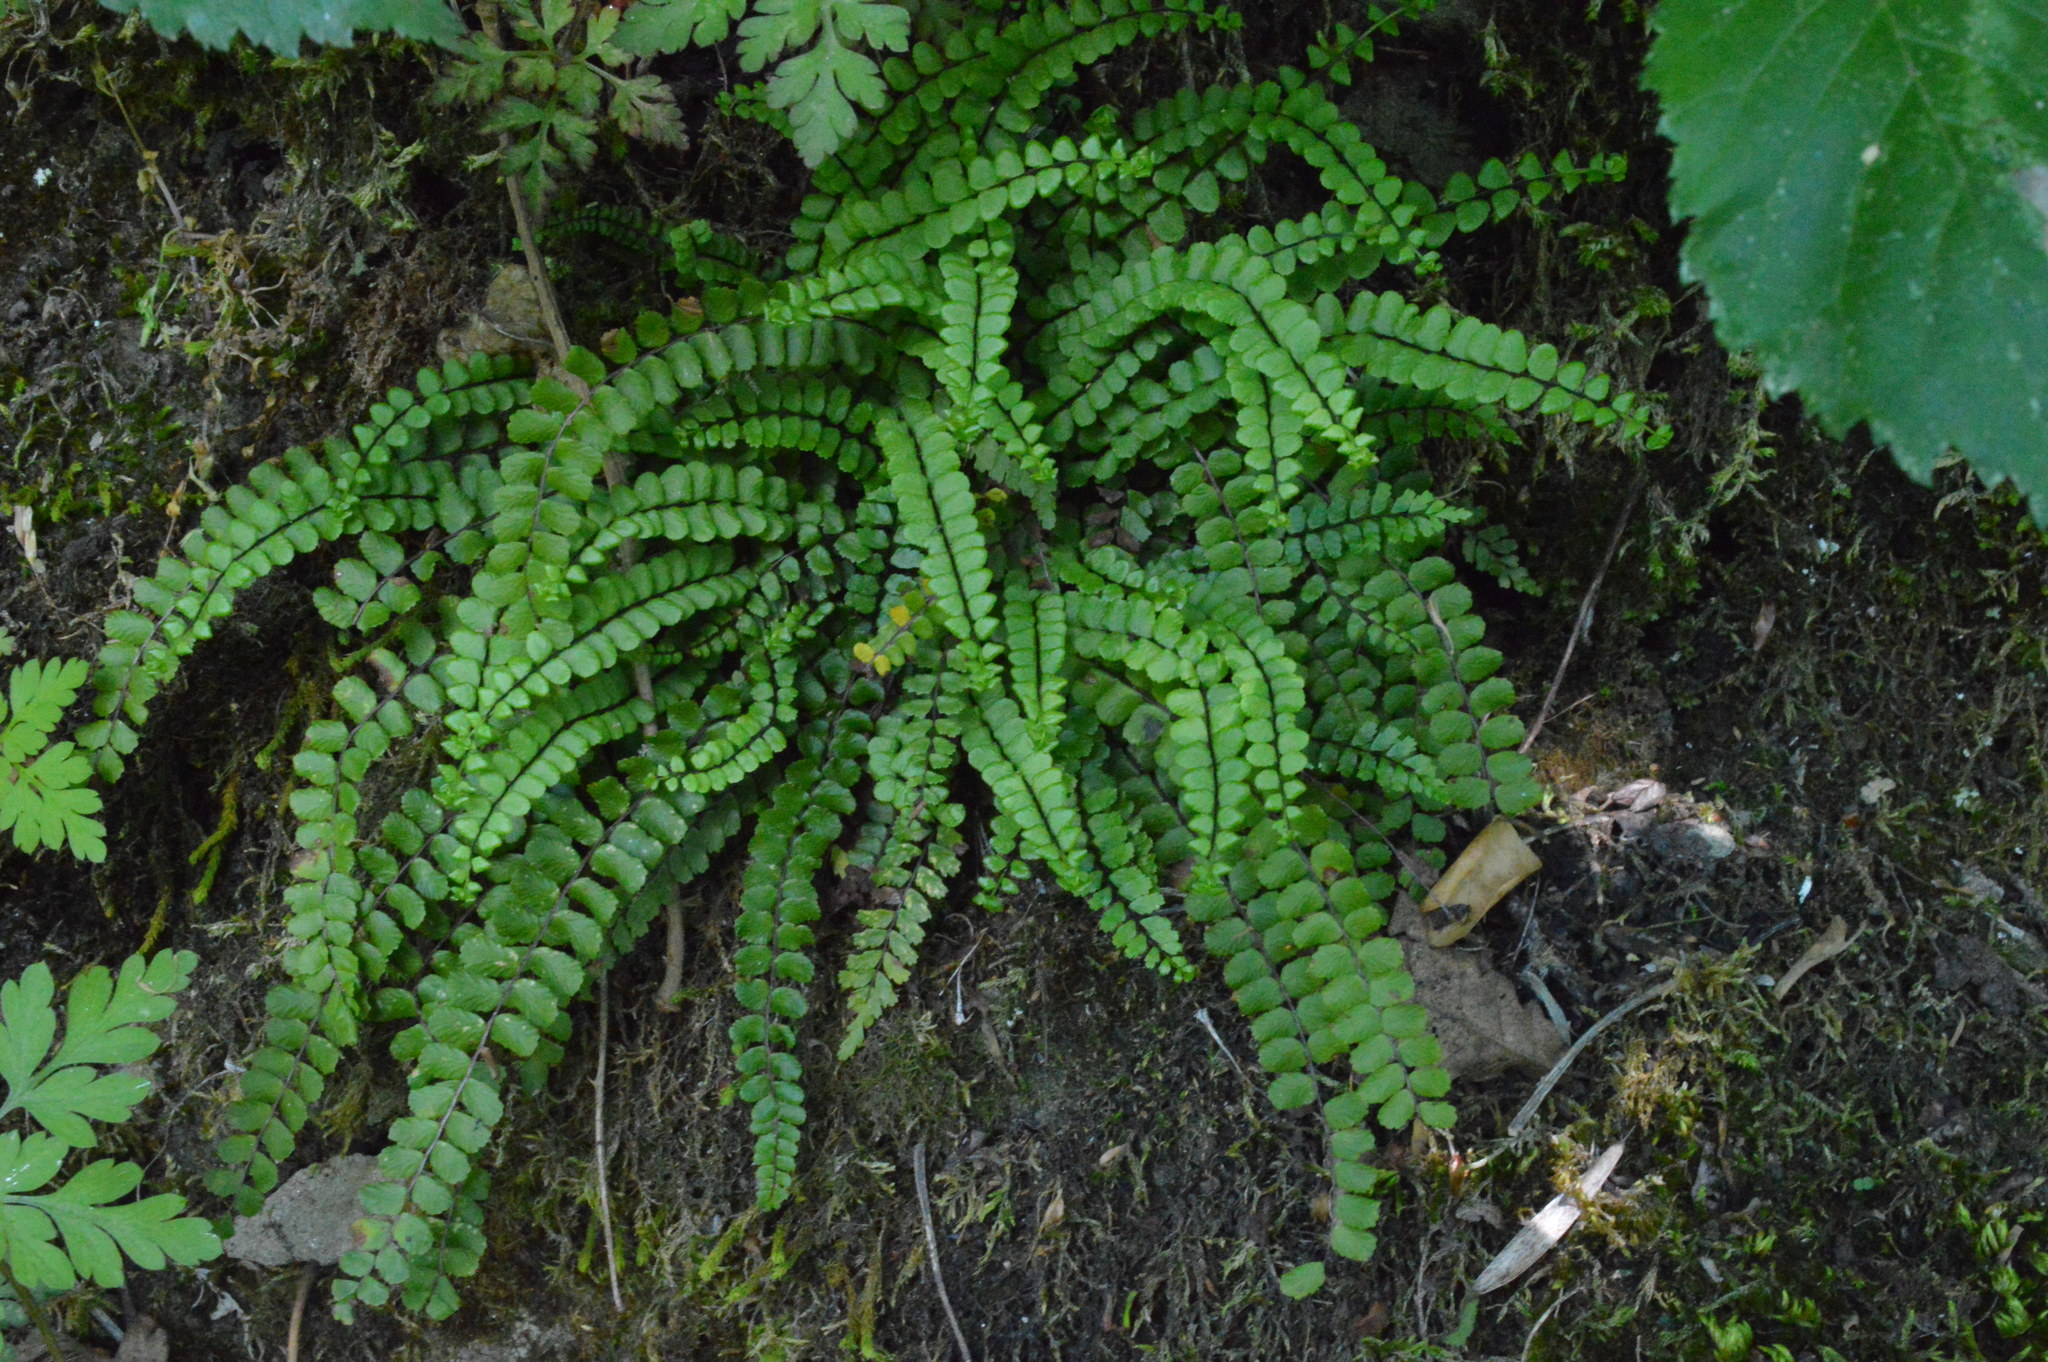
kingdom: Plantae
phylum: Tracheophyta
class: Polypodiopsida
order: Polypodiales
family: Aspleniaceae
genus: Asplenium
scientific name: Asplenium trichomanes
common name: Maidenhair spleenwort
